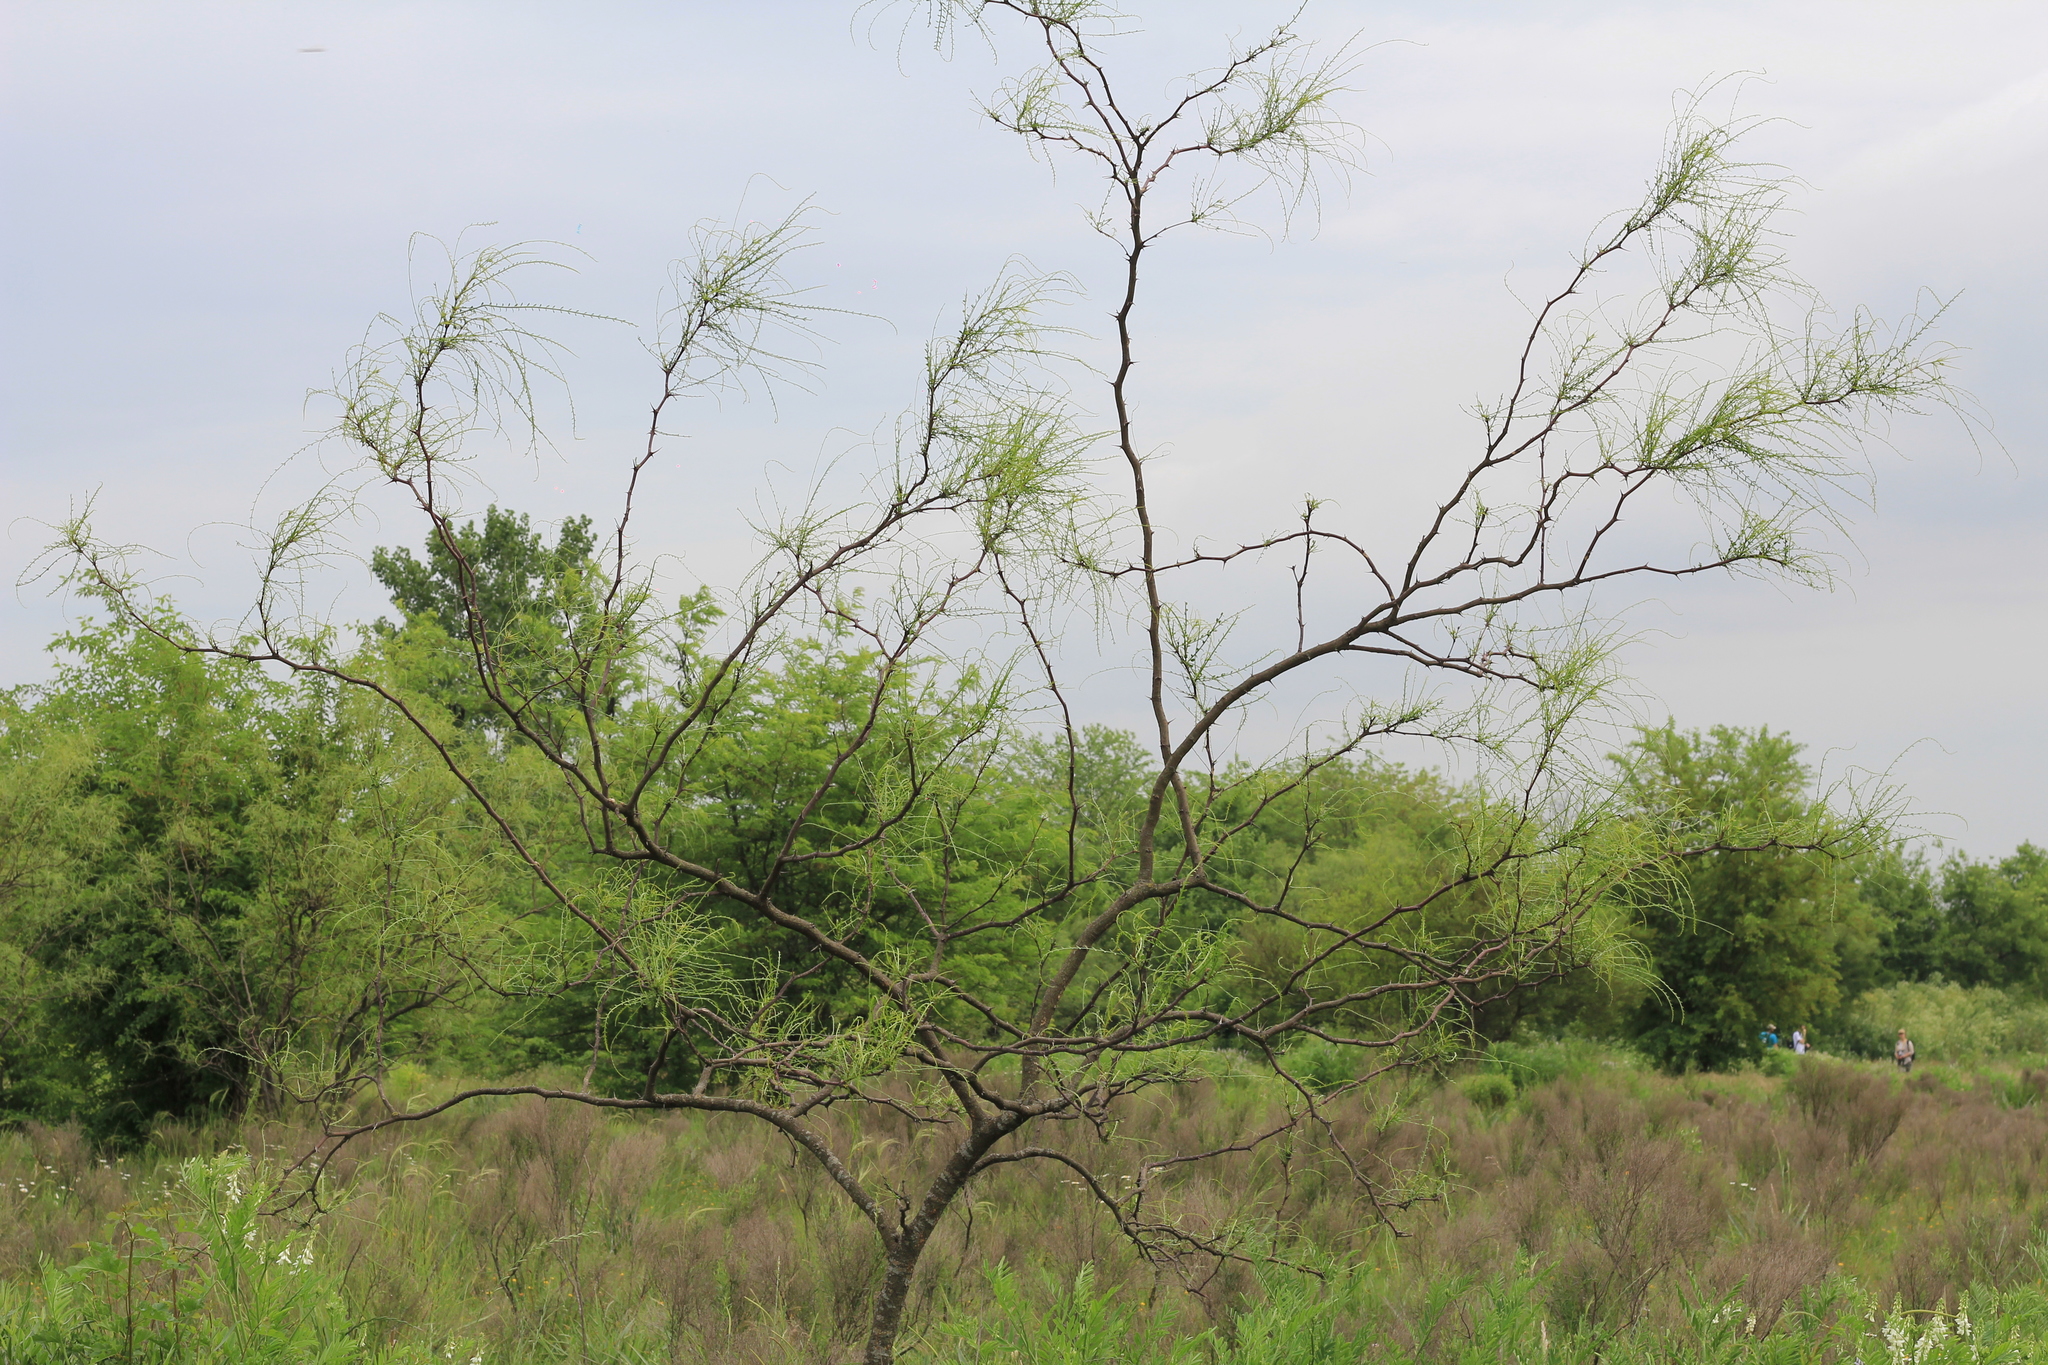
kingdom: Plantae
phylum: Tracheophyta
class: Magnoliopsida
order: Fabales
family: Fabaceae
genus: Parkinsonia
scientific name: Parkinsonia aculeata
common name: Jerusalem thorn
